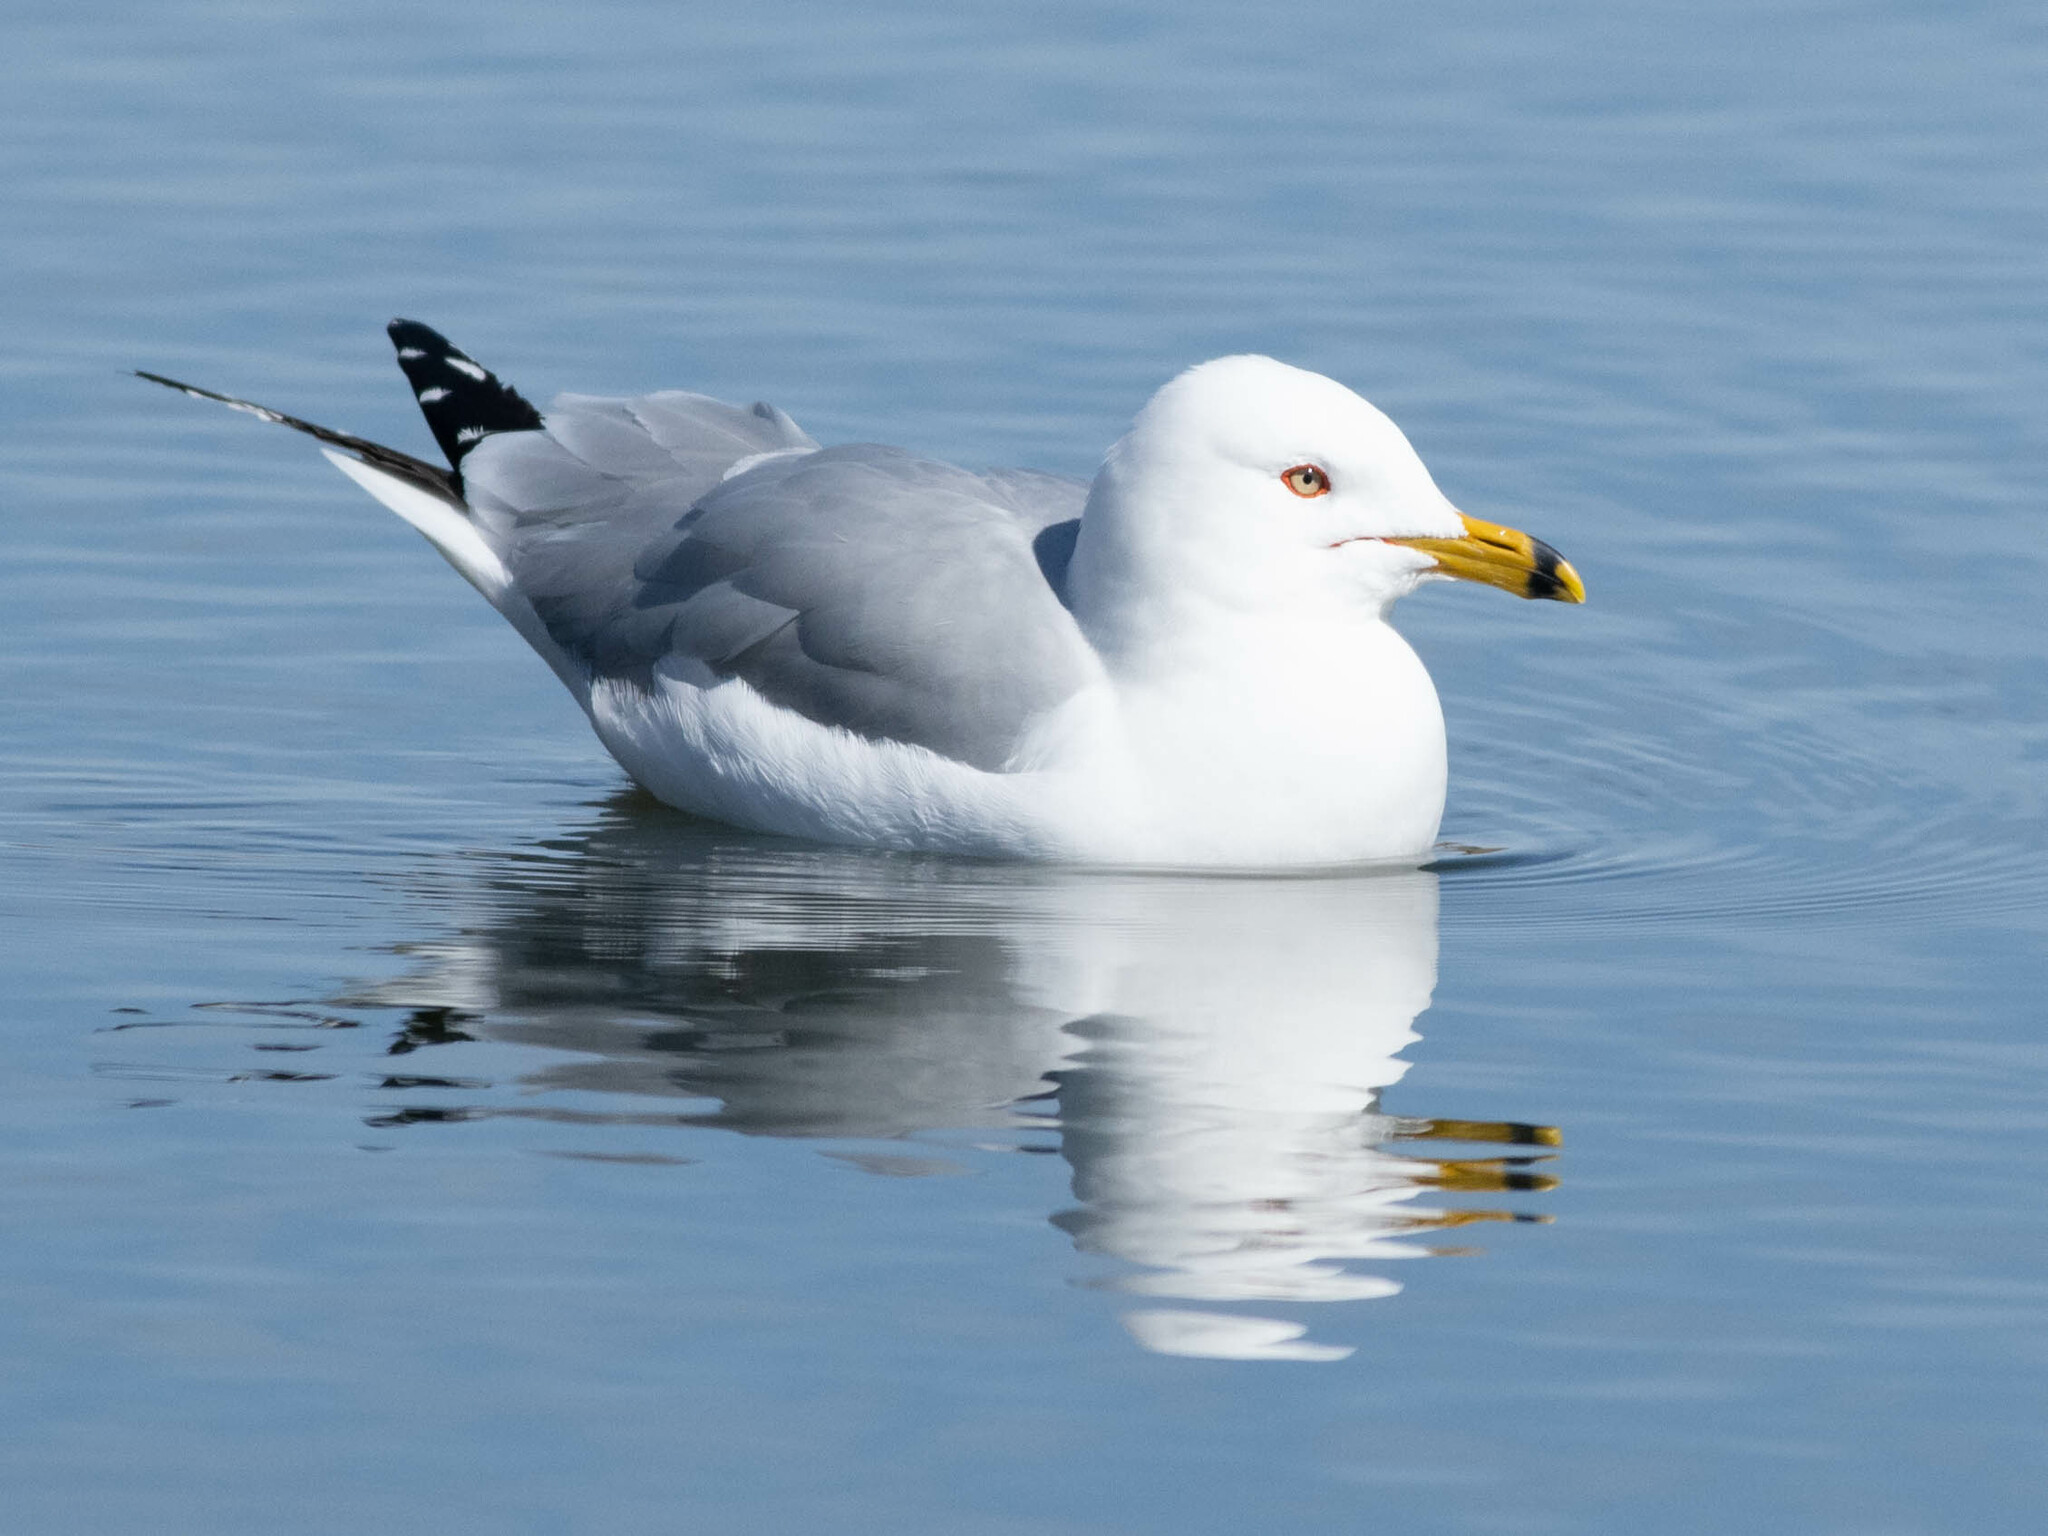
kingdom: Animalia
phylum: Chordata
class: Aves
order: Charadriiformes
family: Laridae
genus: Larus
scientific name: Larus delawarensis
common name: Ring-billed gull
